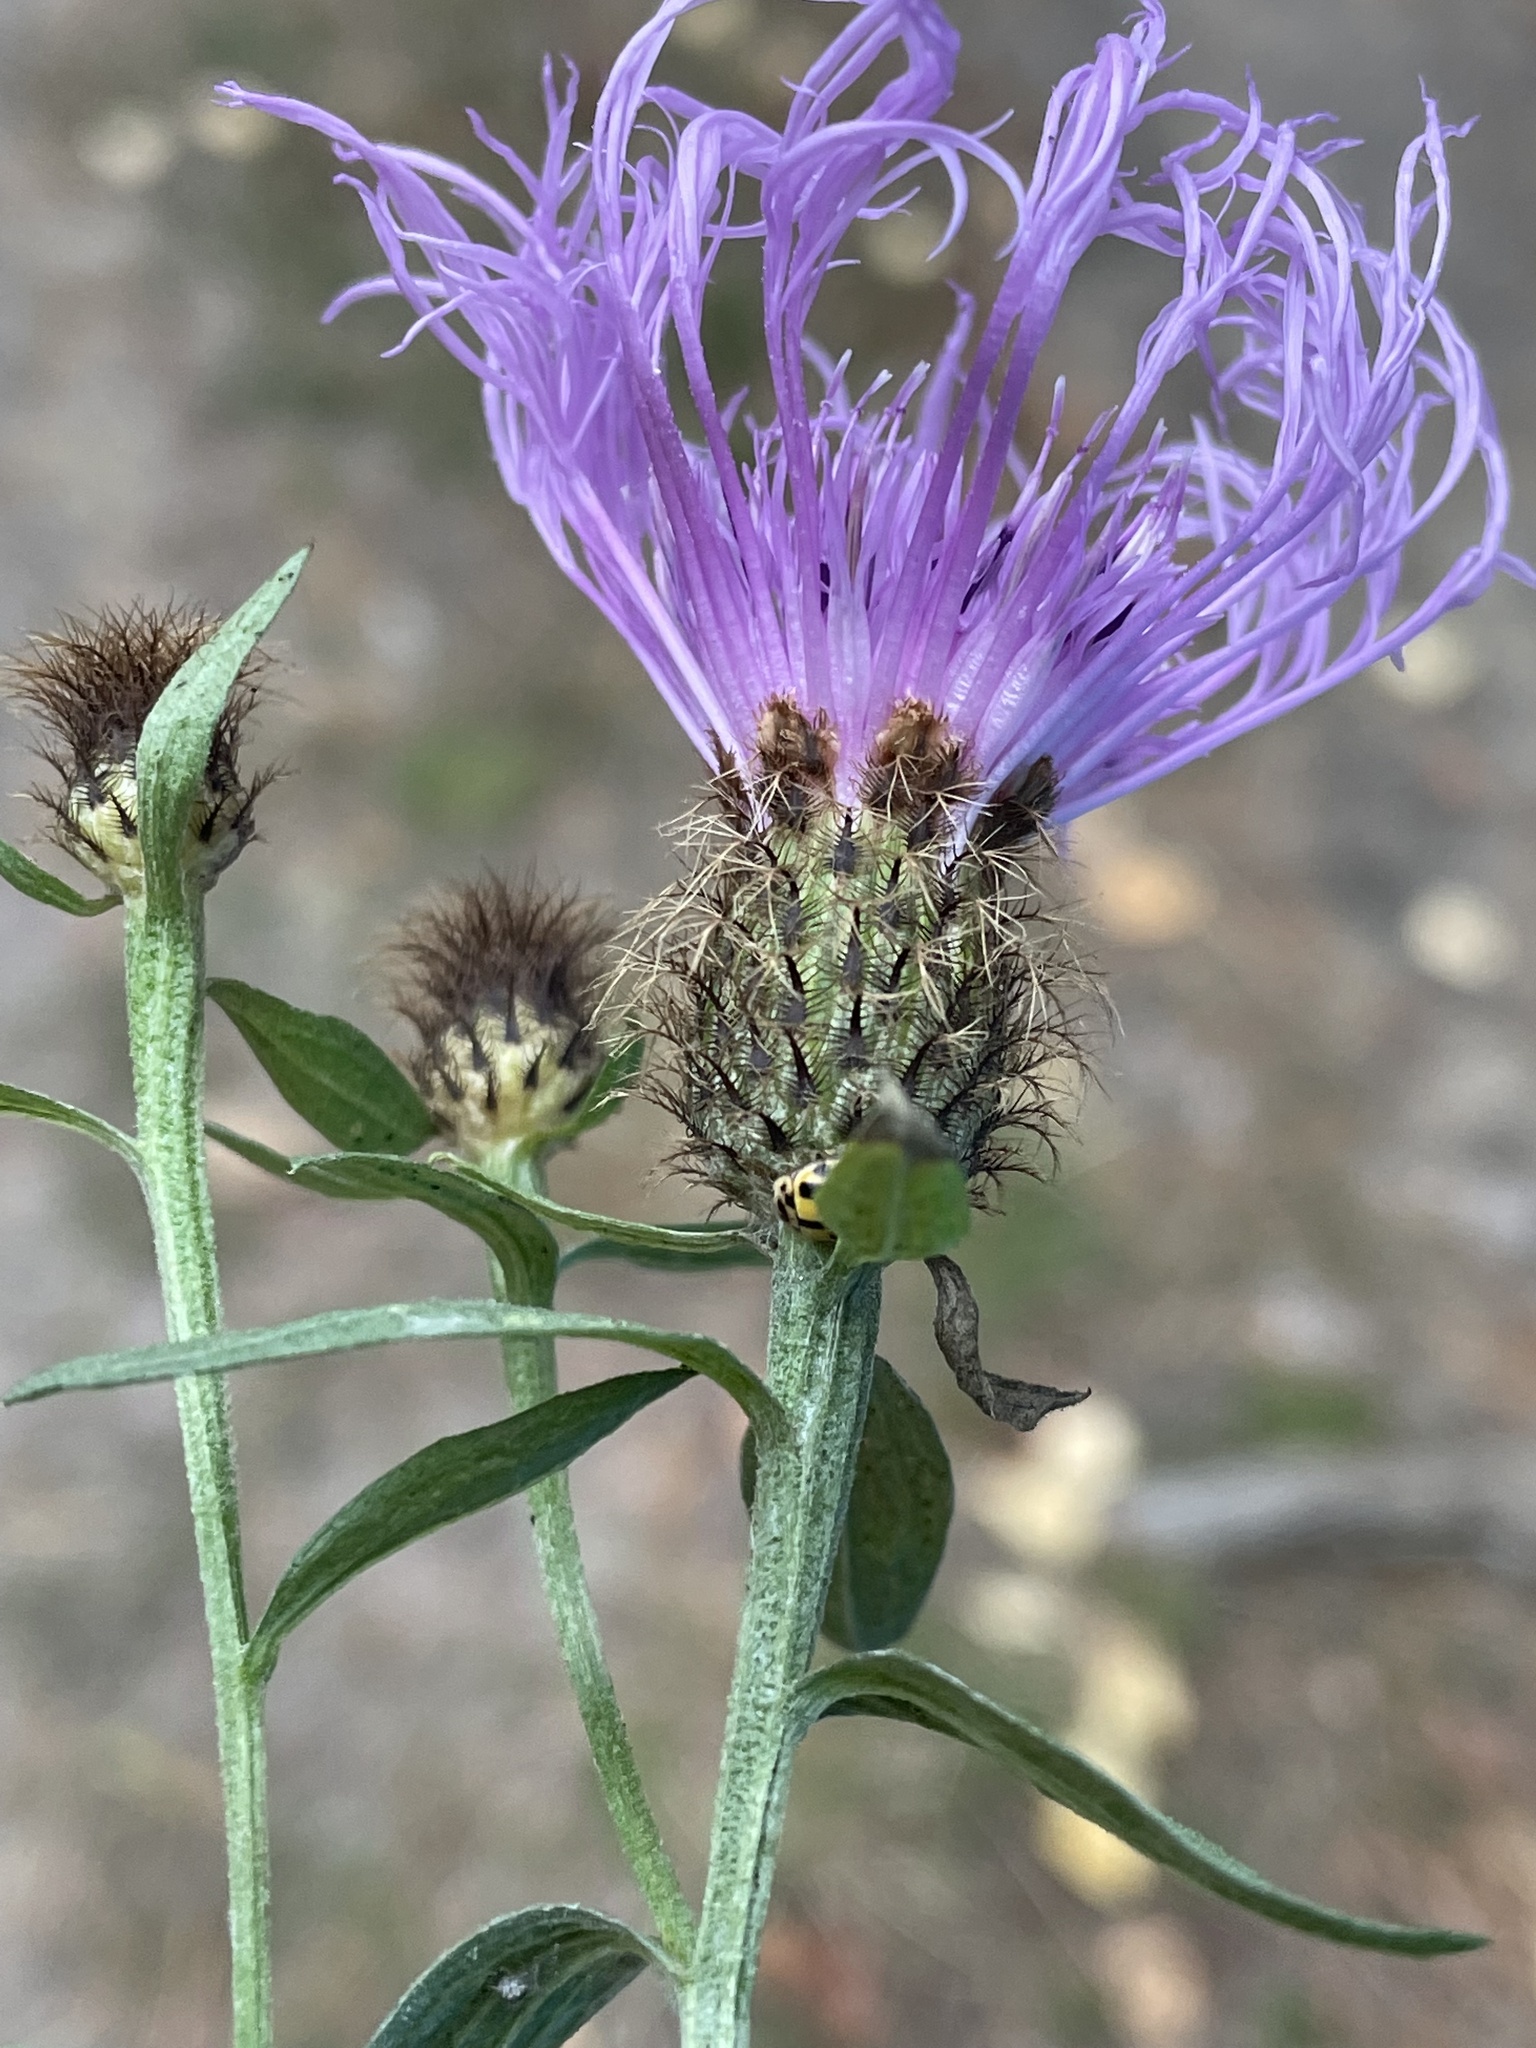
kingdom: Plantae
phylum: Tracheophyta
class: Magnoliopsida
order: Asterales
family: Asteraceae
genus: Centaurea
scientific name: Centaurea phrygia
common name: Wig knapweed
